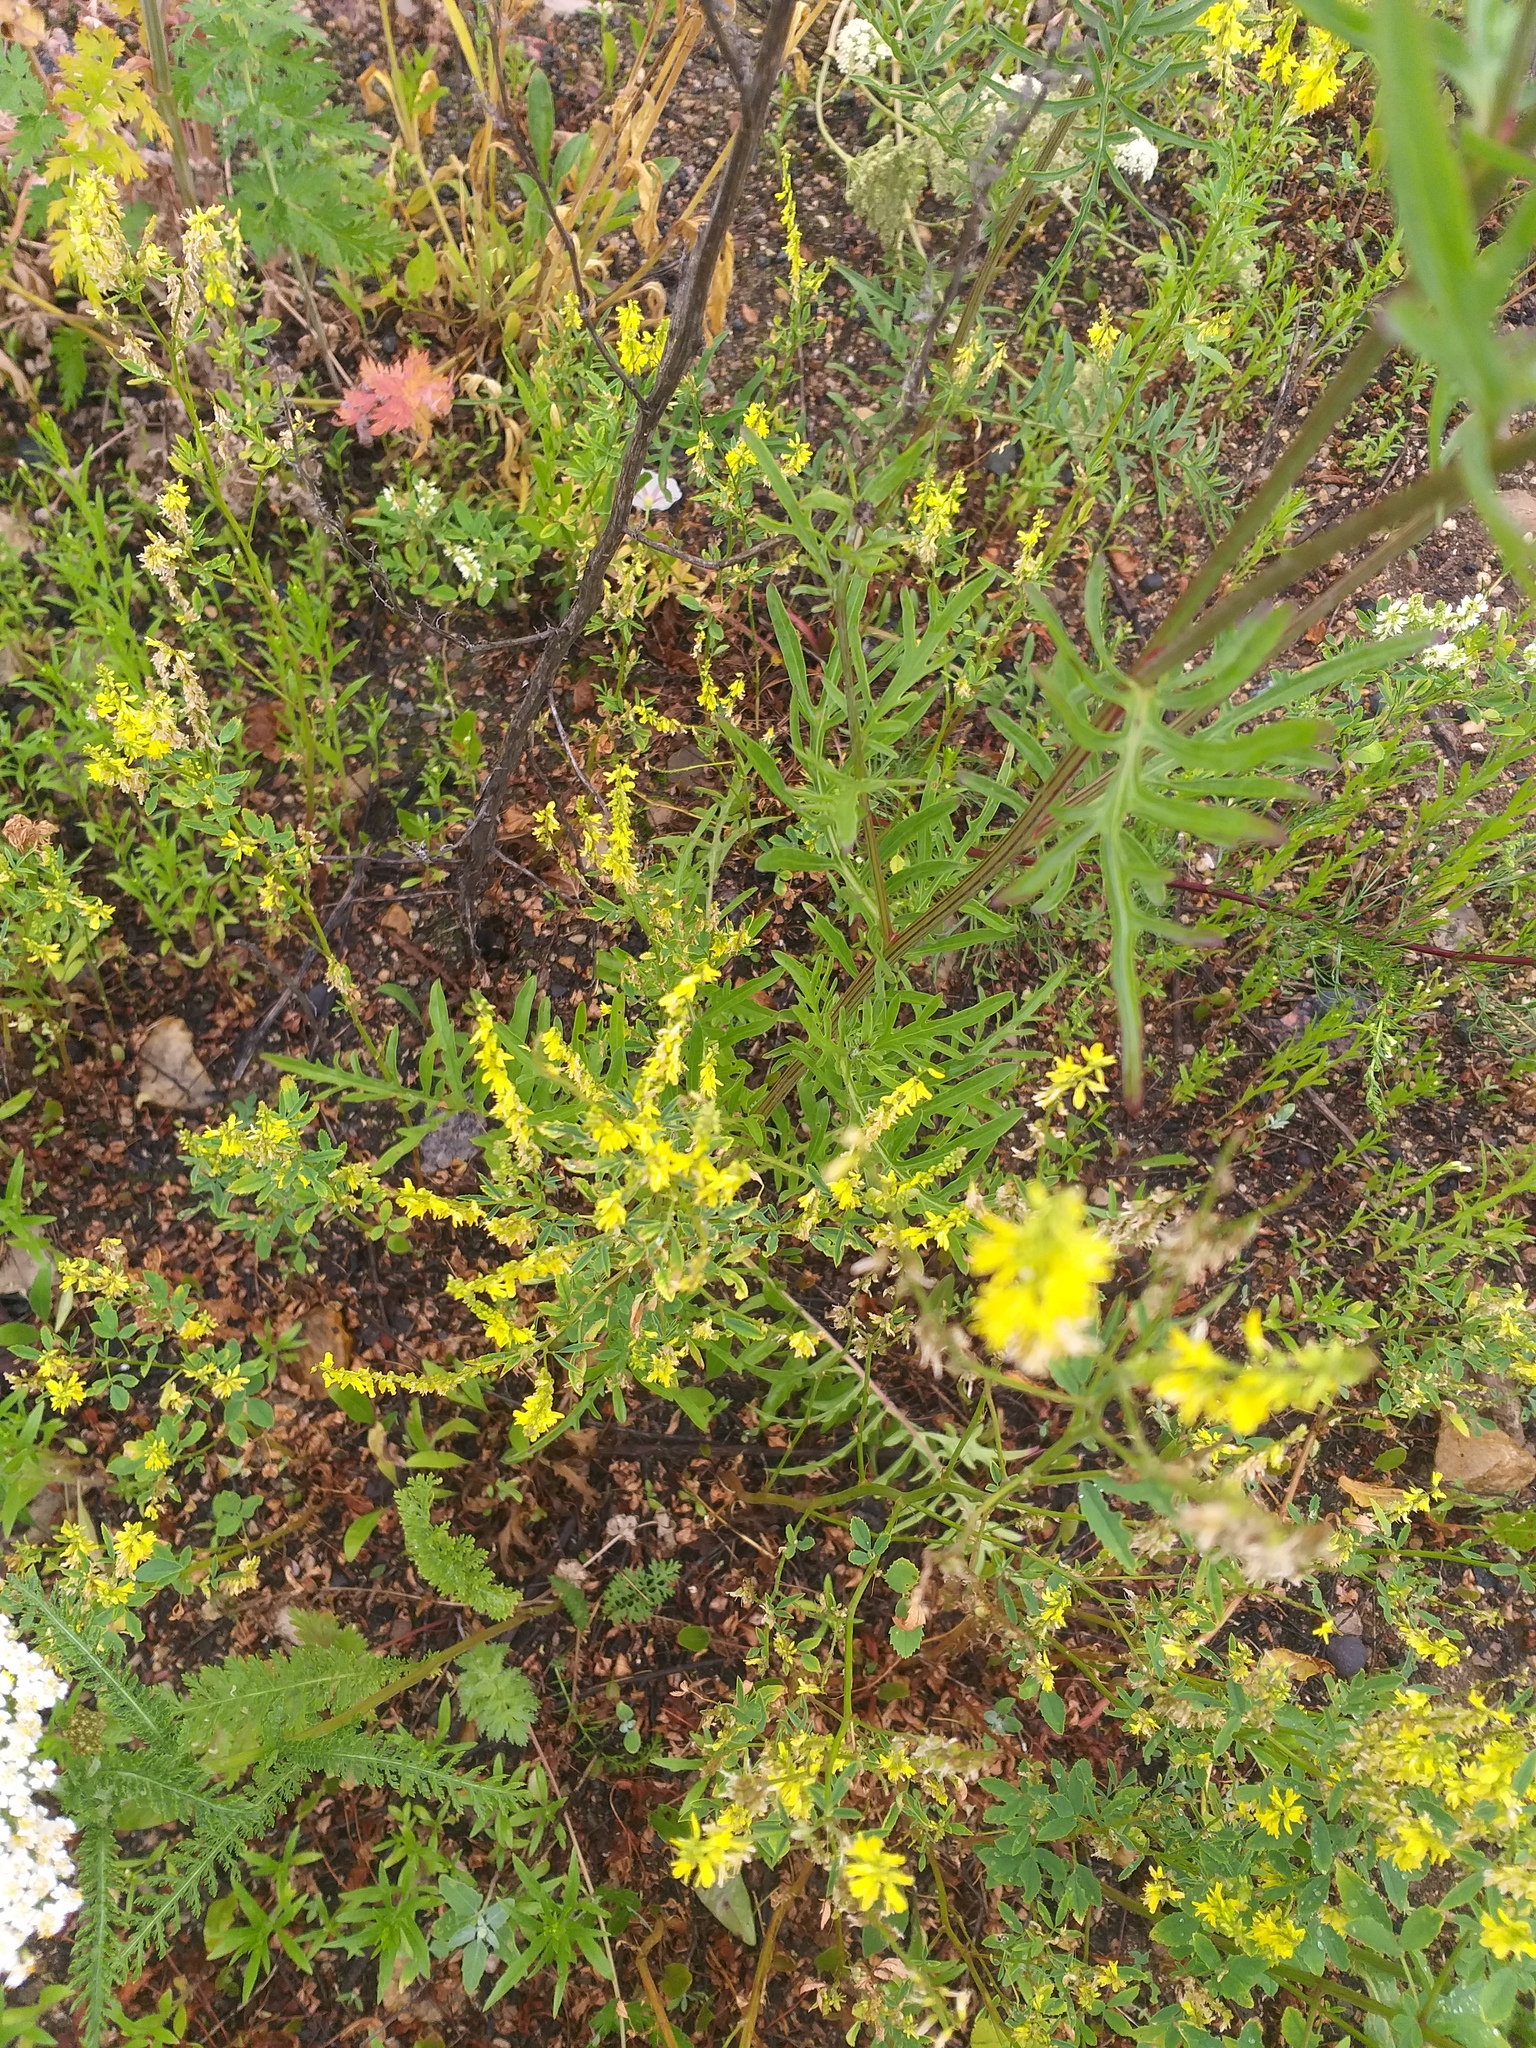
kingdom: Plantae
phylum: Tracheophyta
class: Magnoliopsida
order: Fabales
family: Fabaceae
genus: Melilotus
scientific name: Melilotus officinalis
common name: Sweetclover
